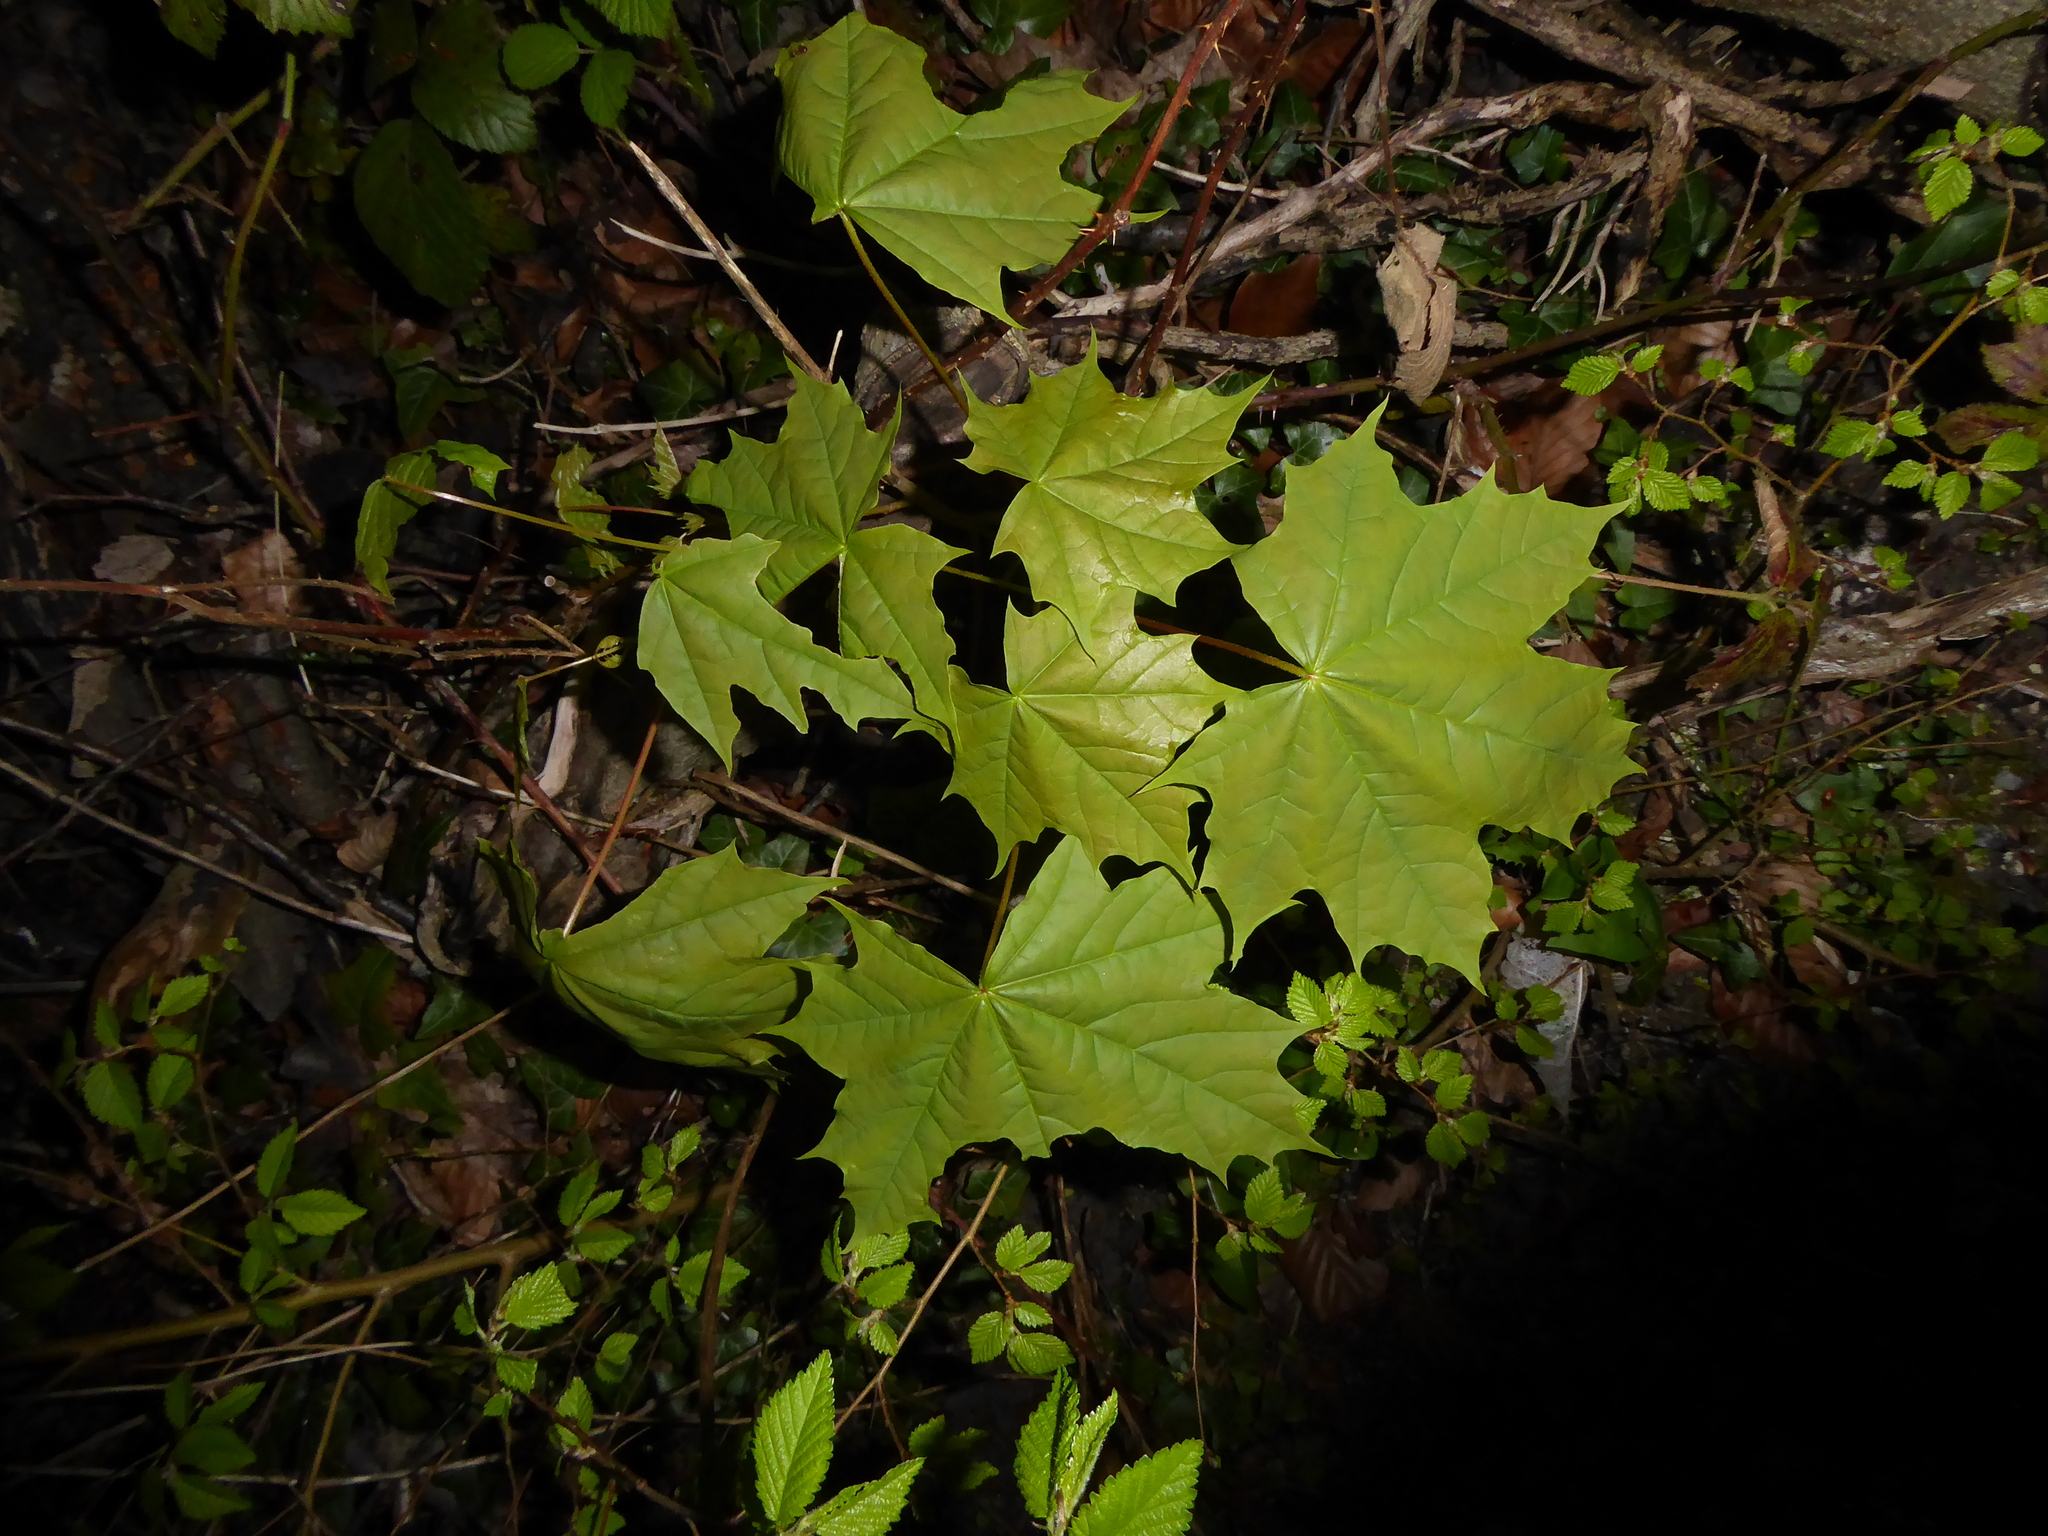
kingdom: Plantae
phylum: Tracheophyta
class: Magnoliopsida
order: Sapindales
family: Sapindaceae
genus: Acer
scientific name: Acer platanoides
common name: Norway maple
